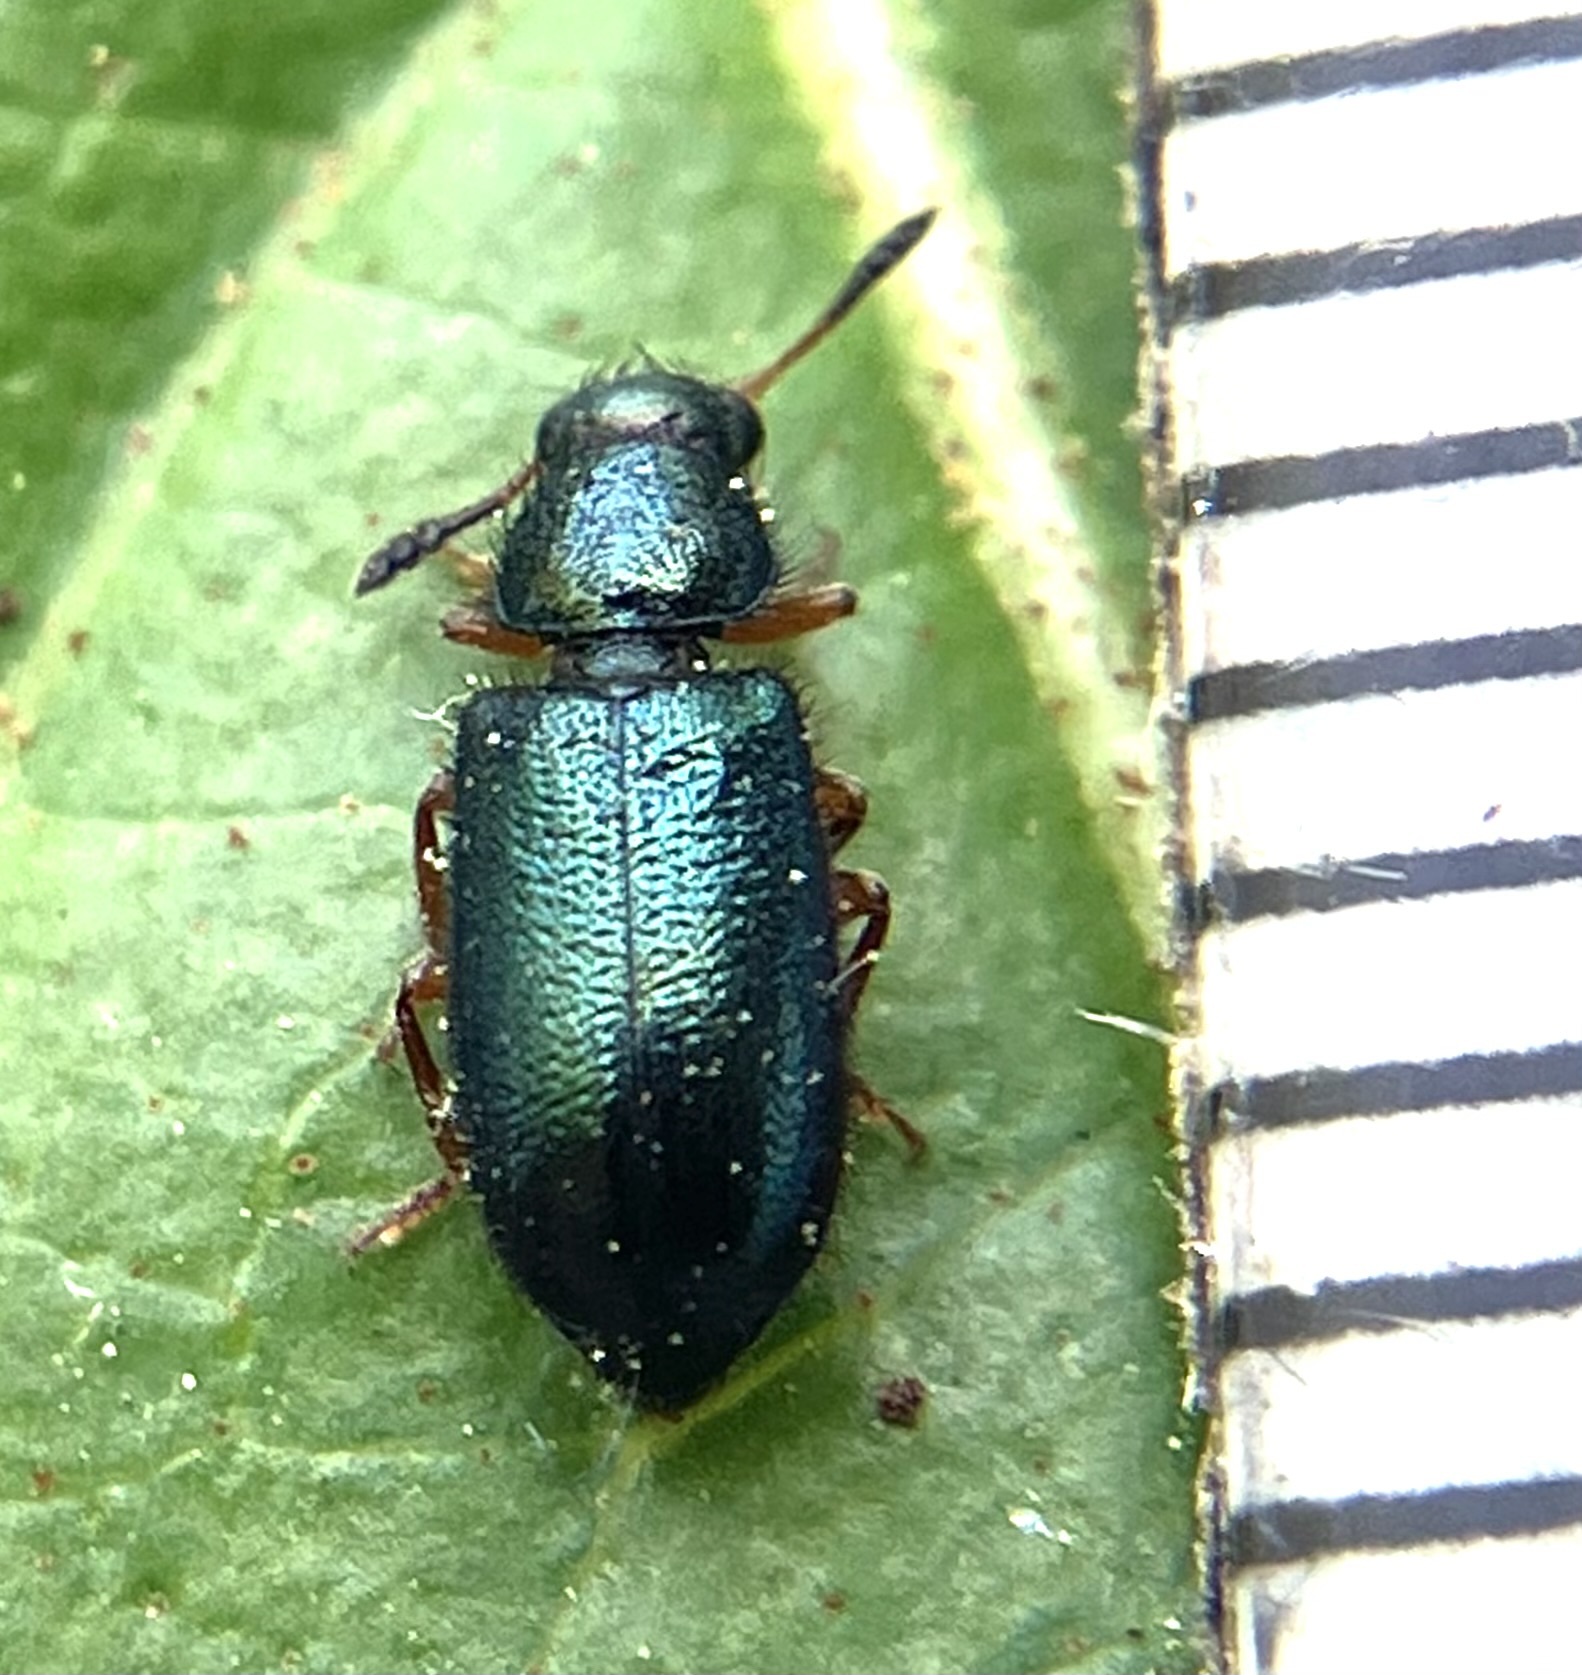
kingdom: Animalia
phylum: Arthropoda
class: Insecta
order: Coleoptera
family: Cleridae
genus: Necrobia
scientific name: Necrobia rufipes
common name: Red-legged ham beetle
